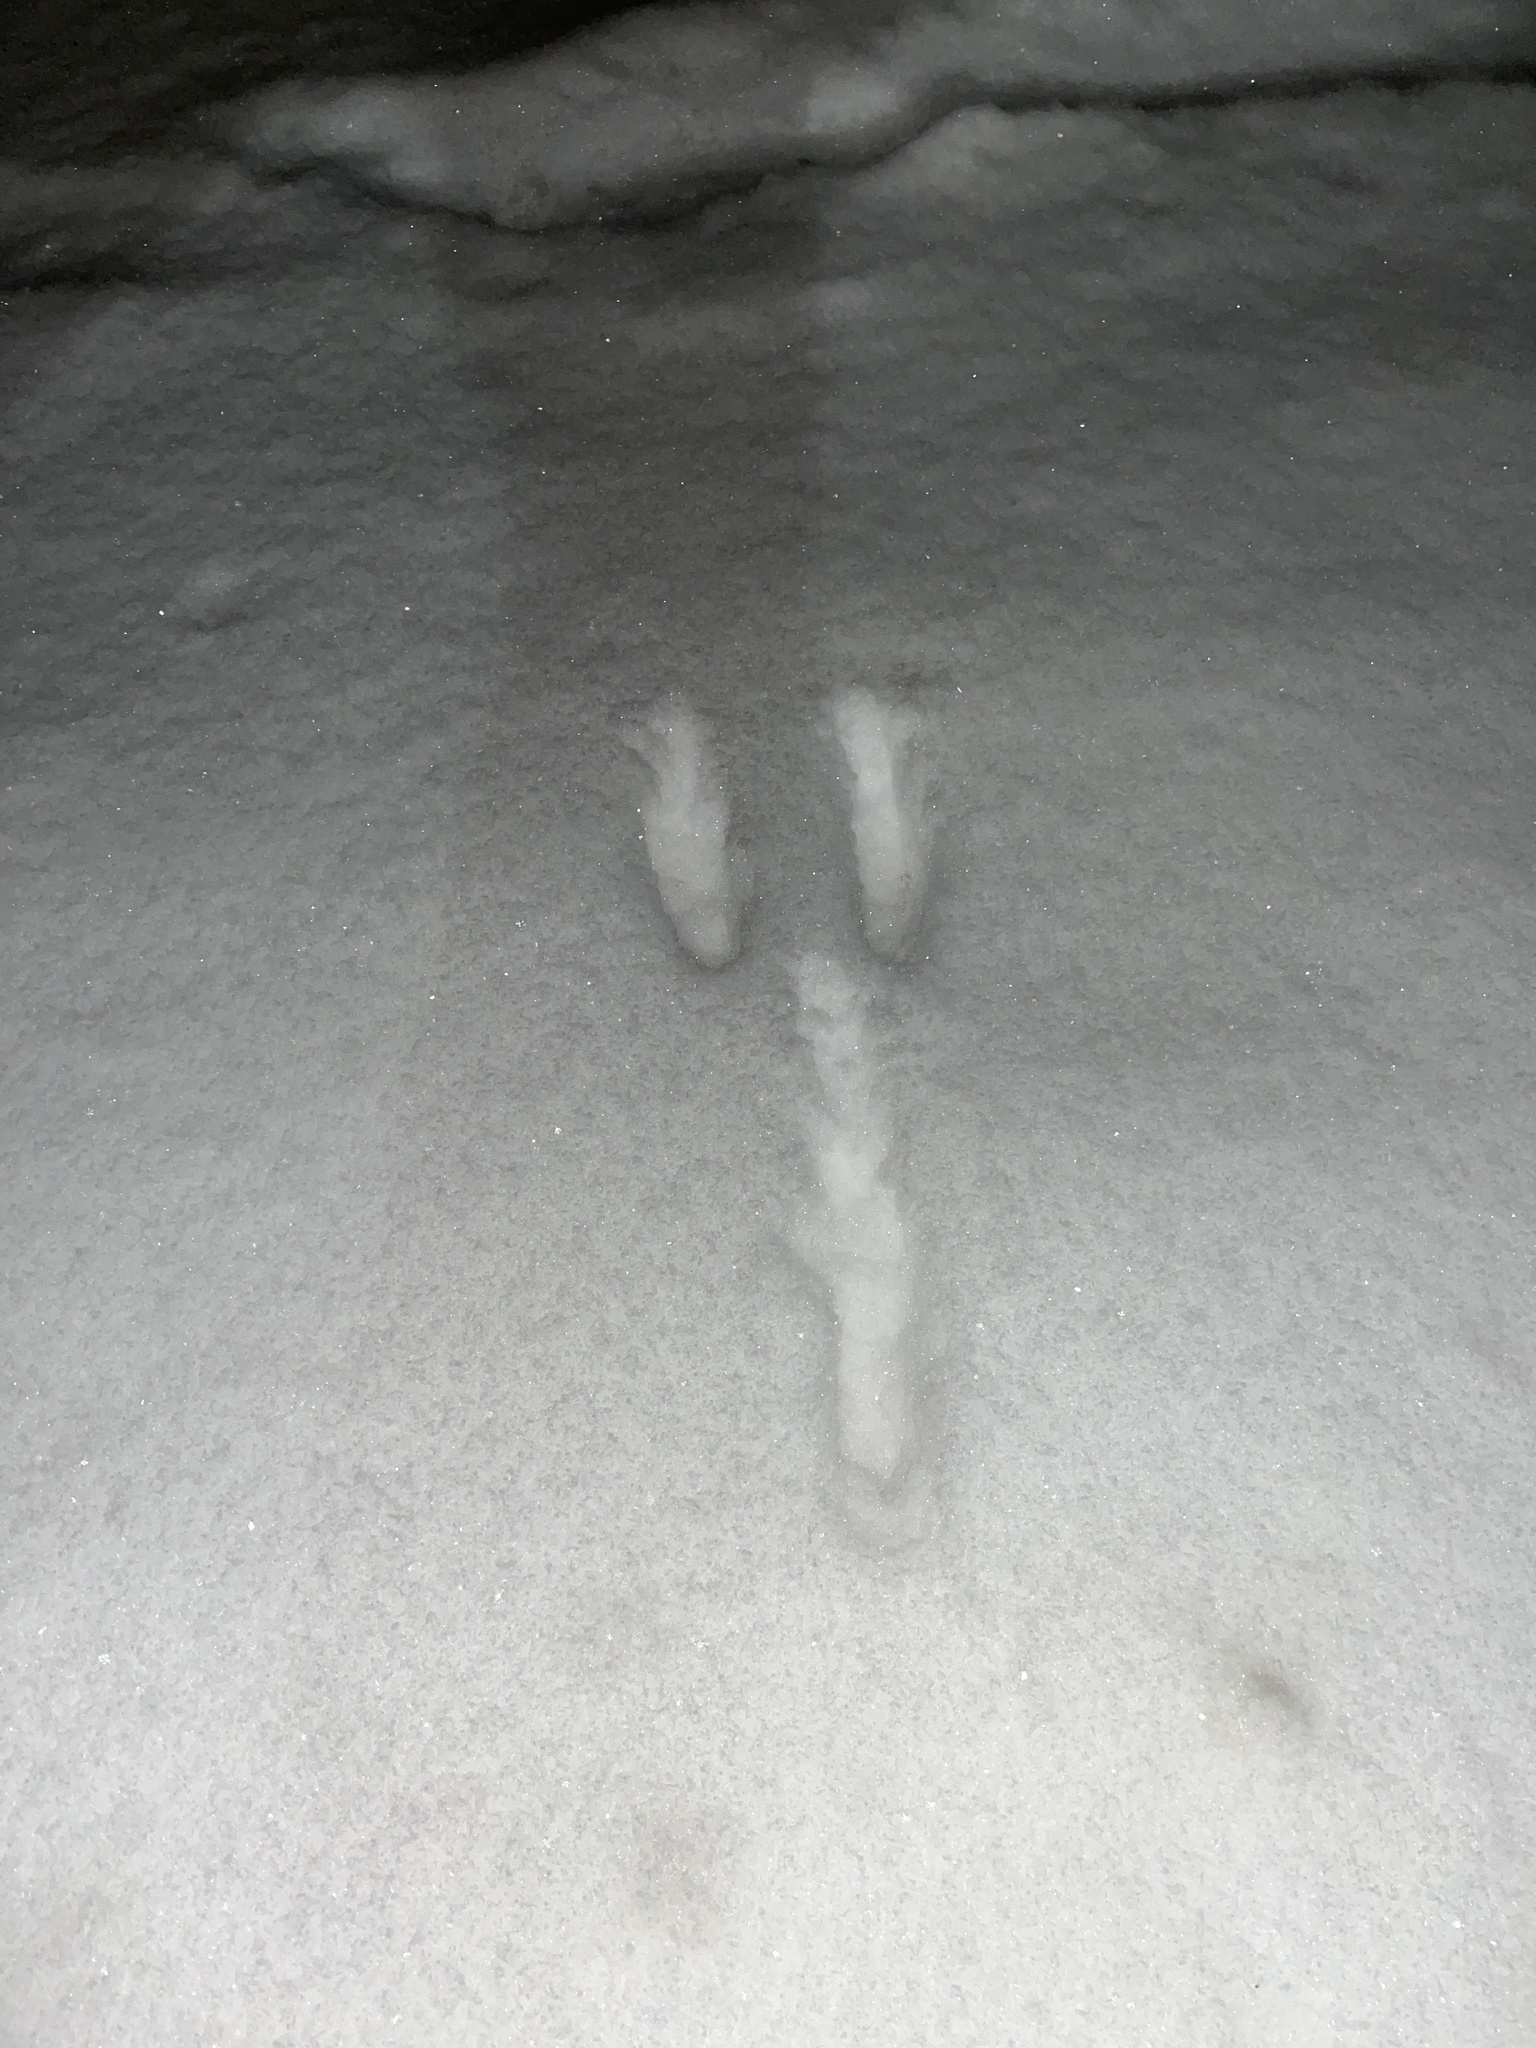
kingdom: Animalia
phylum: Chordata
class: Mammalia
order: Lagomorpha
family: Leporidae
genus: Sylvilagus
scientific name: Sylvilagus floridanus
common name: Eastern cottontail
